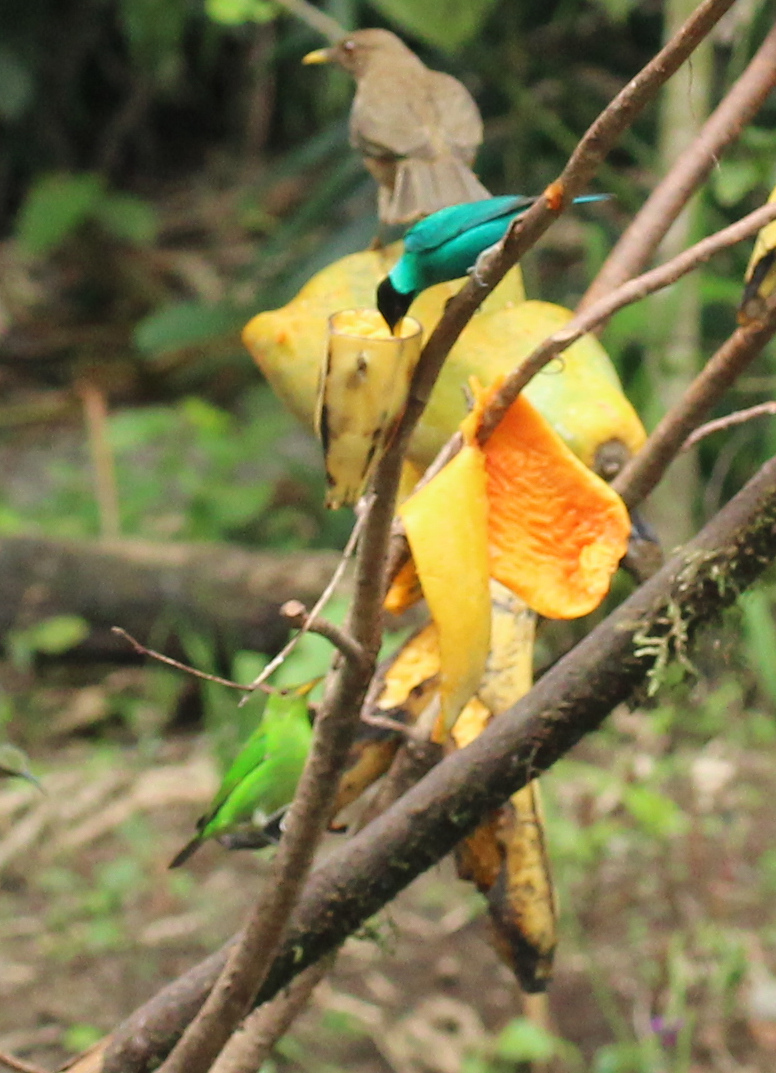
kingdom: Animalia
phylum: Chordata
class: Aves
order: Passeriformes
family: Thraupidae
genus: Chlorophanes
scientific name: Chlorophanes spiza
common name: Green honeycreeper
